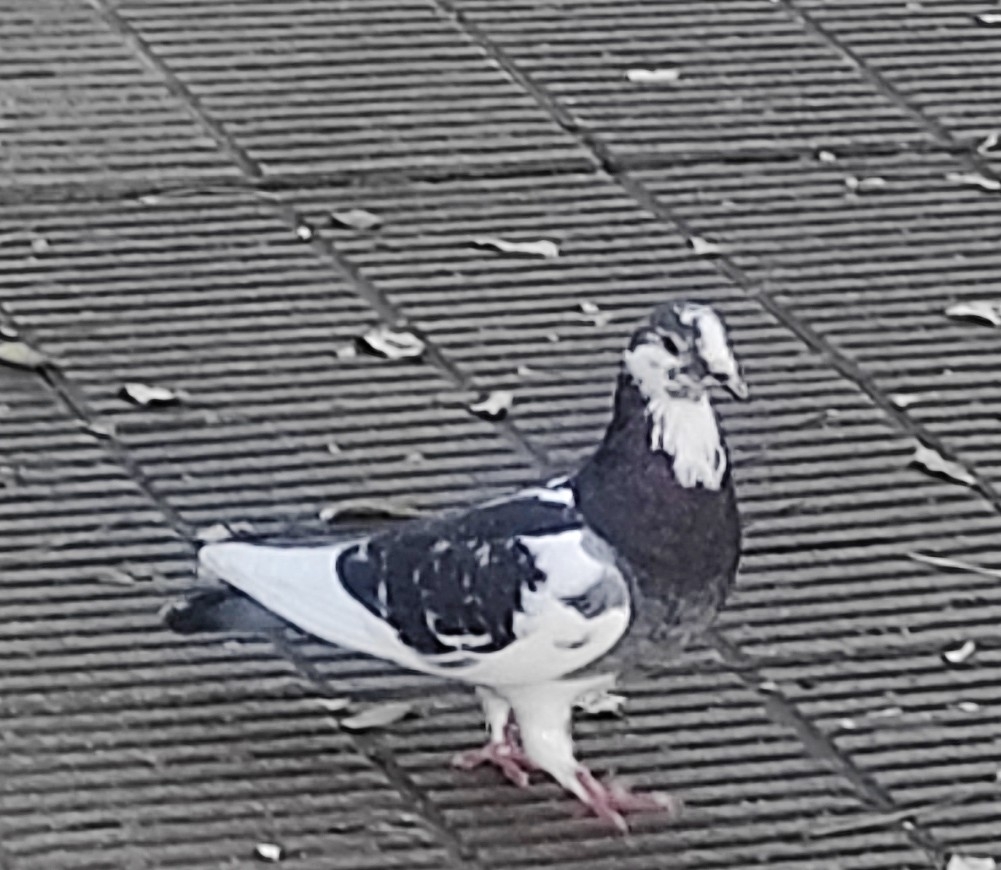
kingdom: Animalia
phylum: Chordata
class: Aves
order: Columbiformes
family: Columbidae
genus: Columba
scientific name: Columba livia
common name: Rock pigeon
